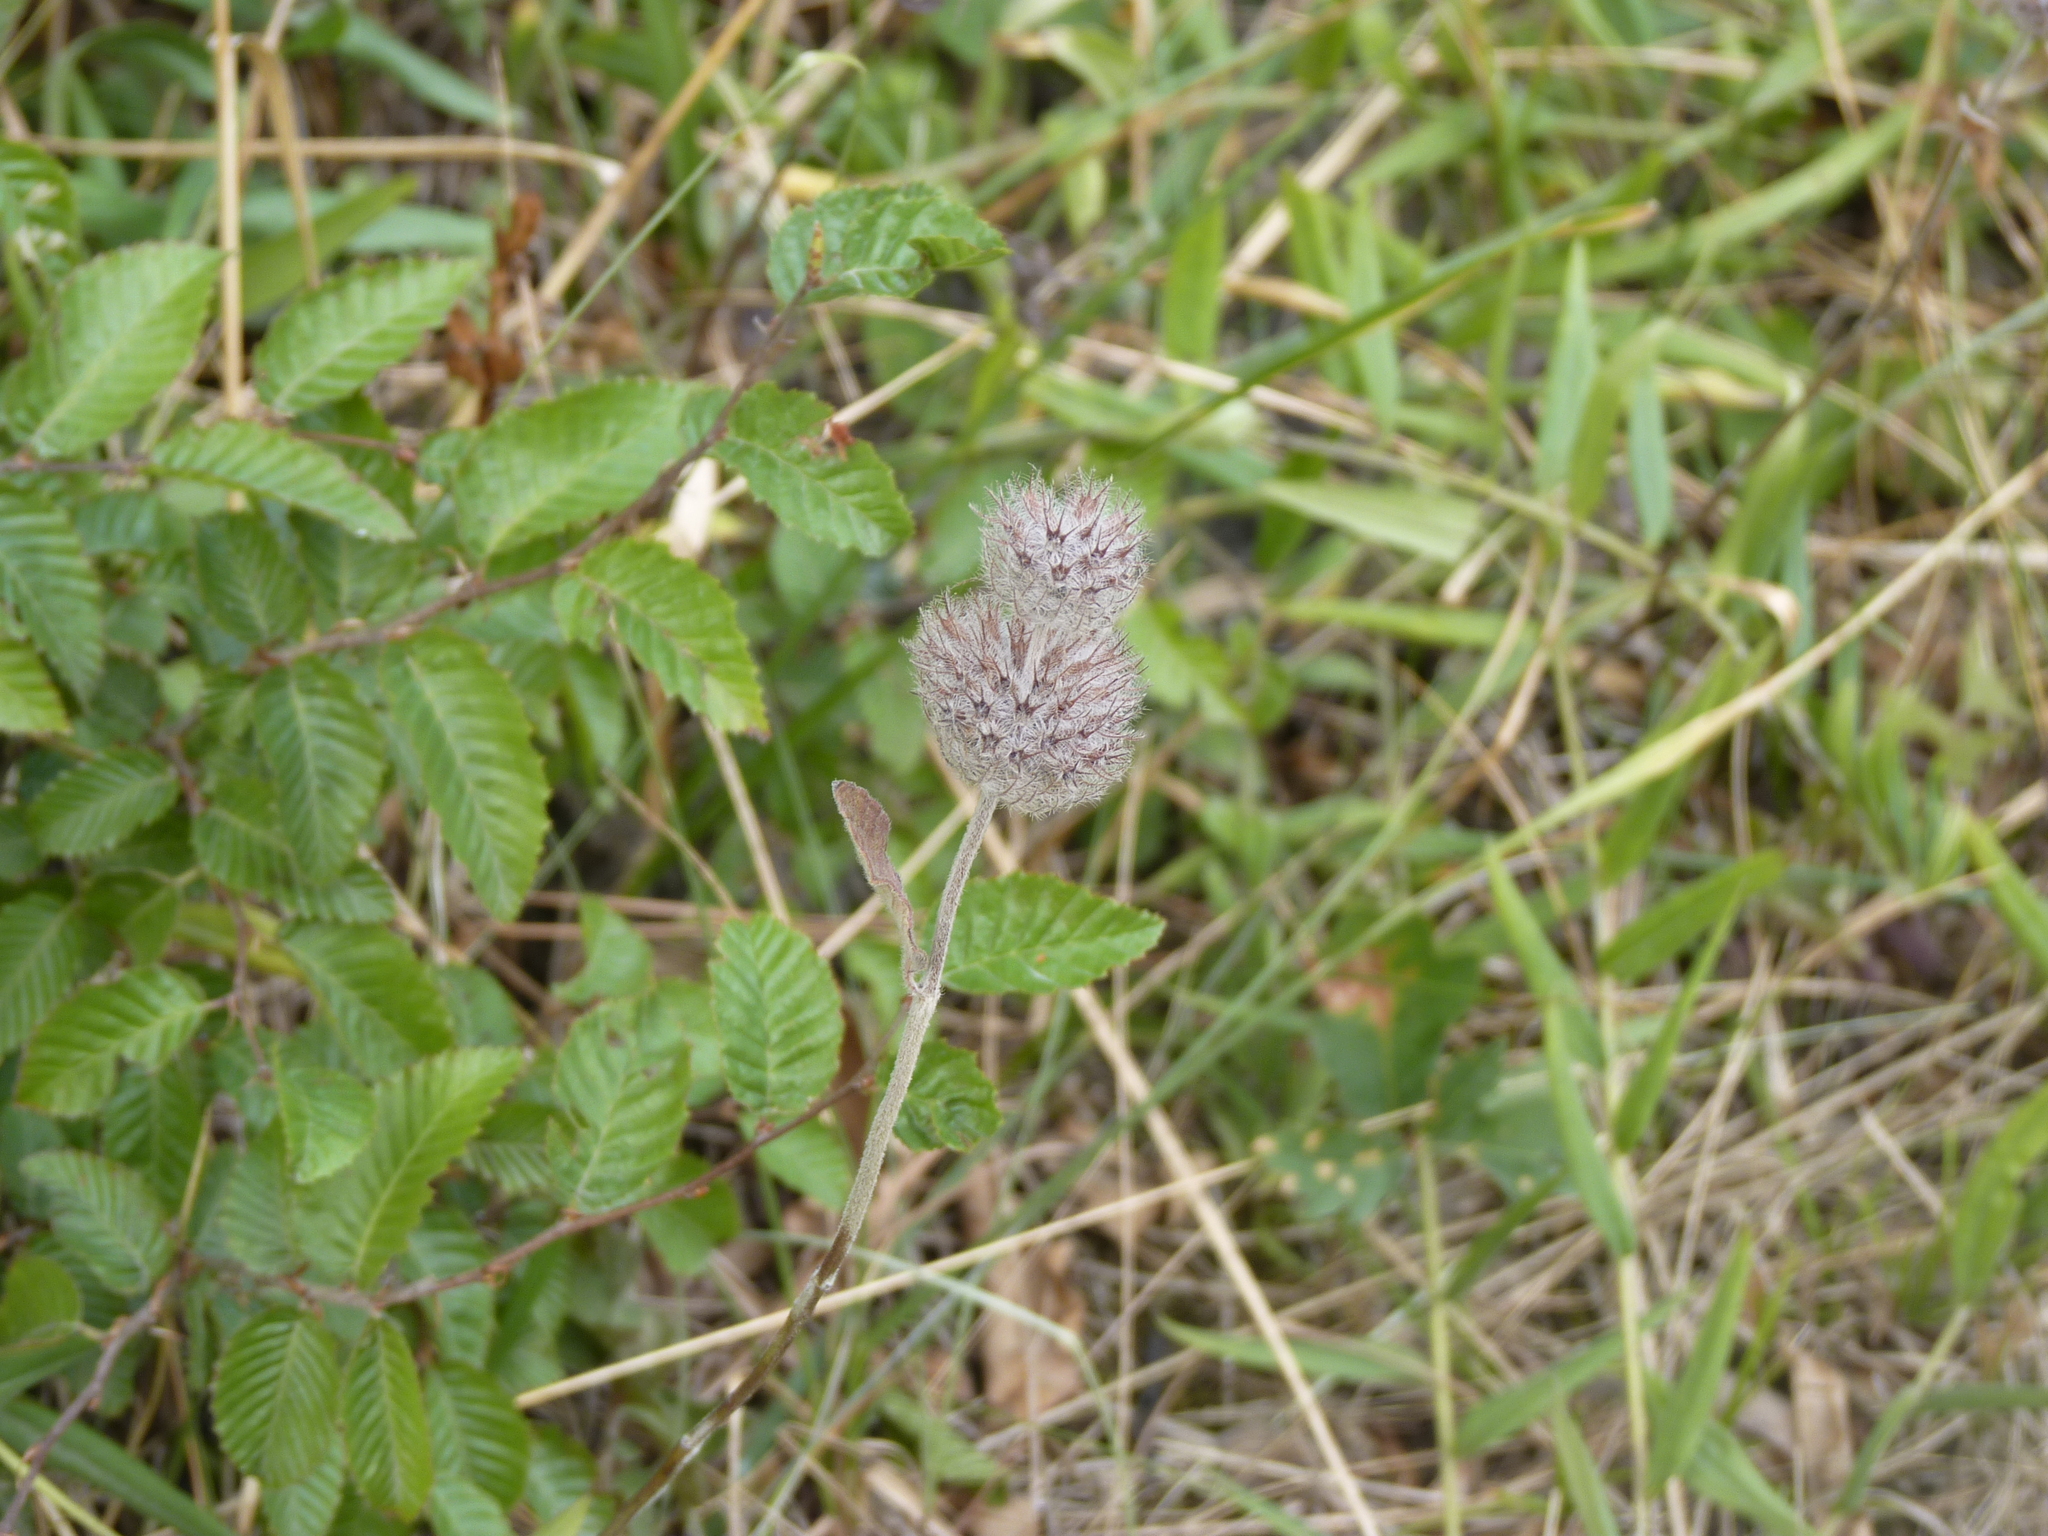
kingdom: Plantae
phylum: Tracheophyta
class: Magnoliopsida
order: Lamiales
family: Lamiaceae
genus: Clinopodium
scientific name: Clinopodium caucasicum
